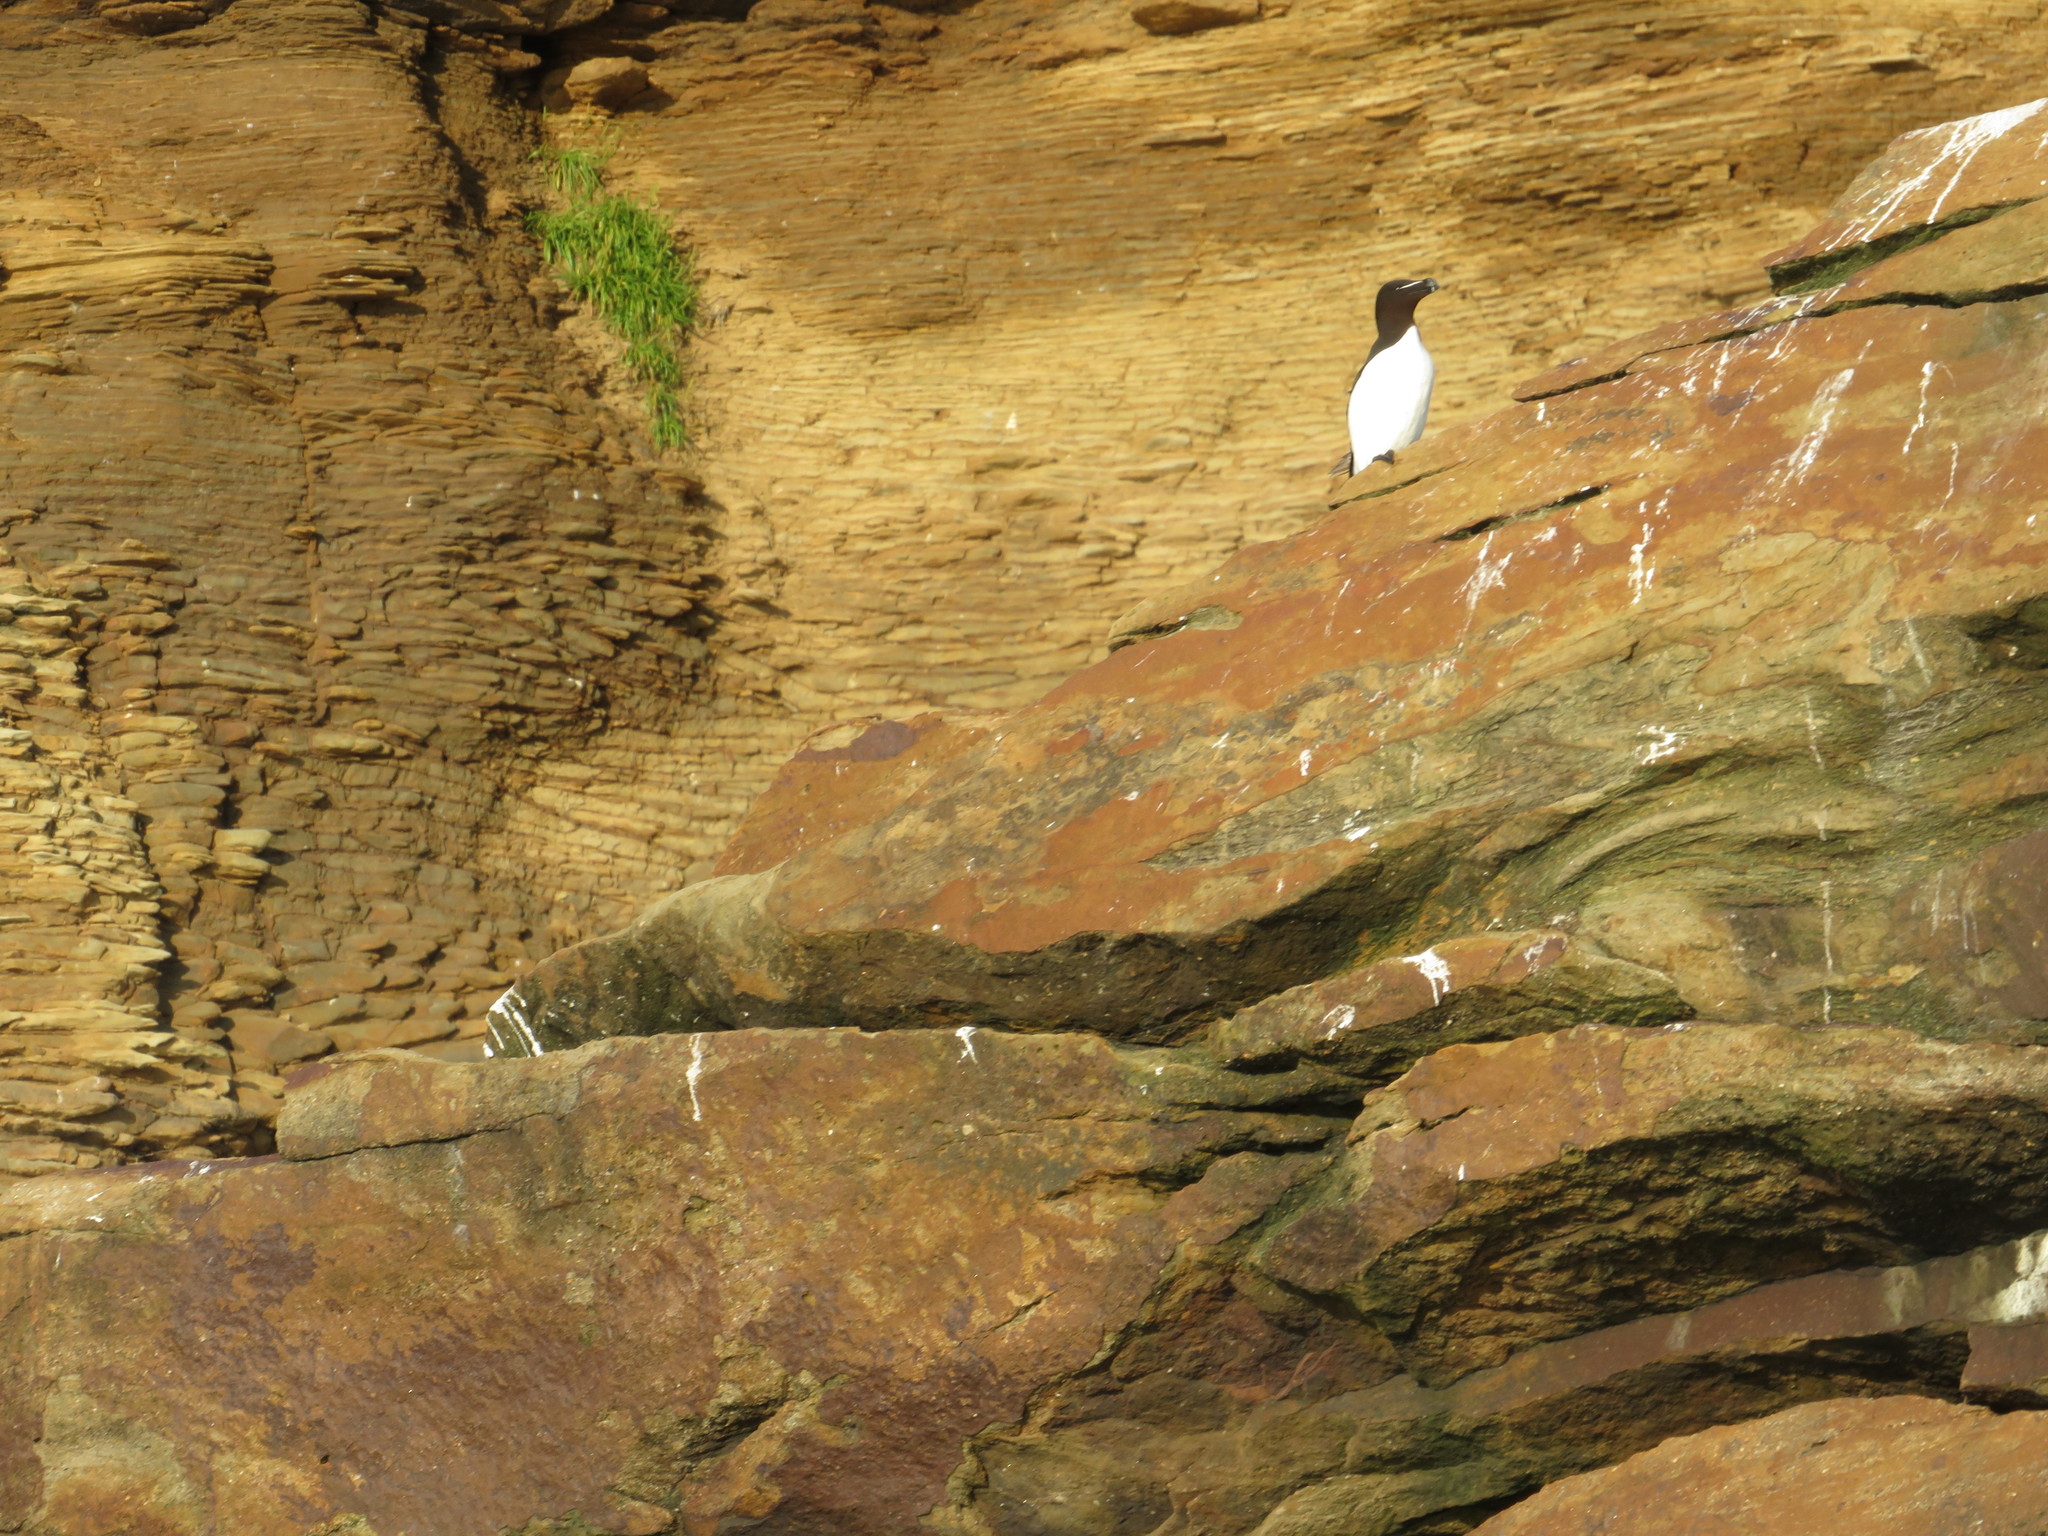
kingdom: Animalia
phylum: Chordata
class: Aves
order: Charadriiformes
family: Alcidae
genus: Alca
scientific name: Alca torda
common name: Razorbill
